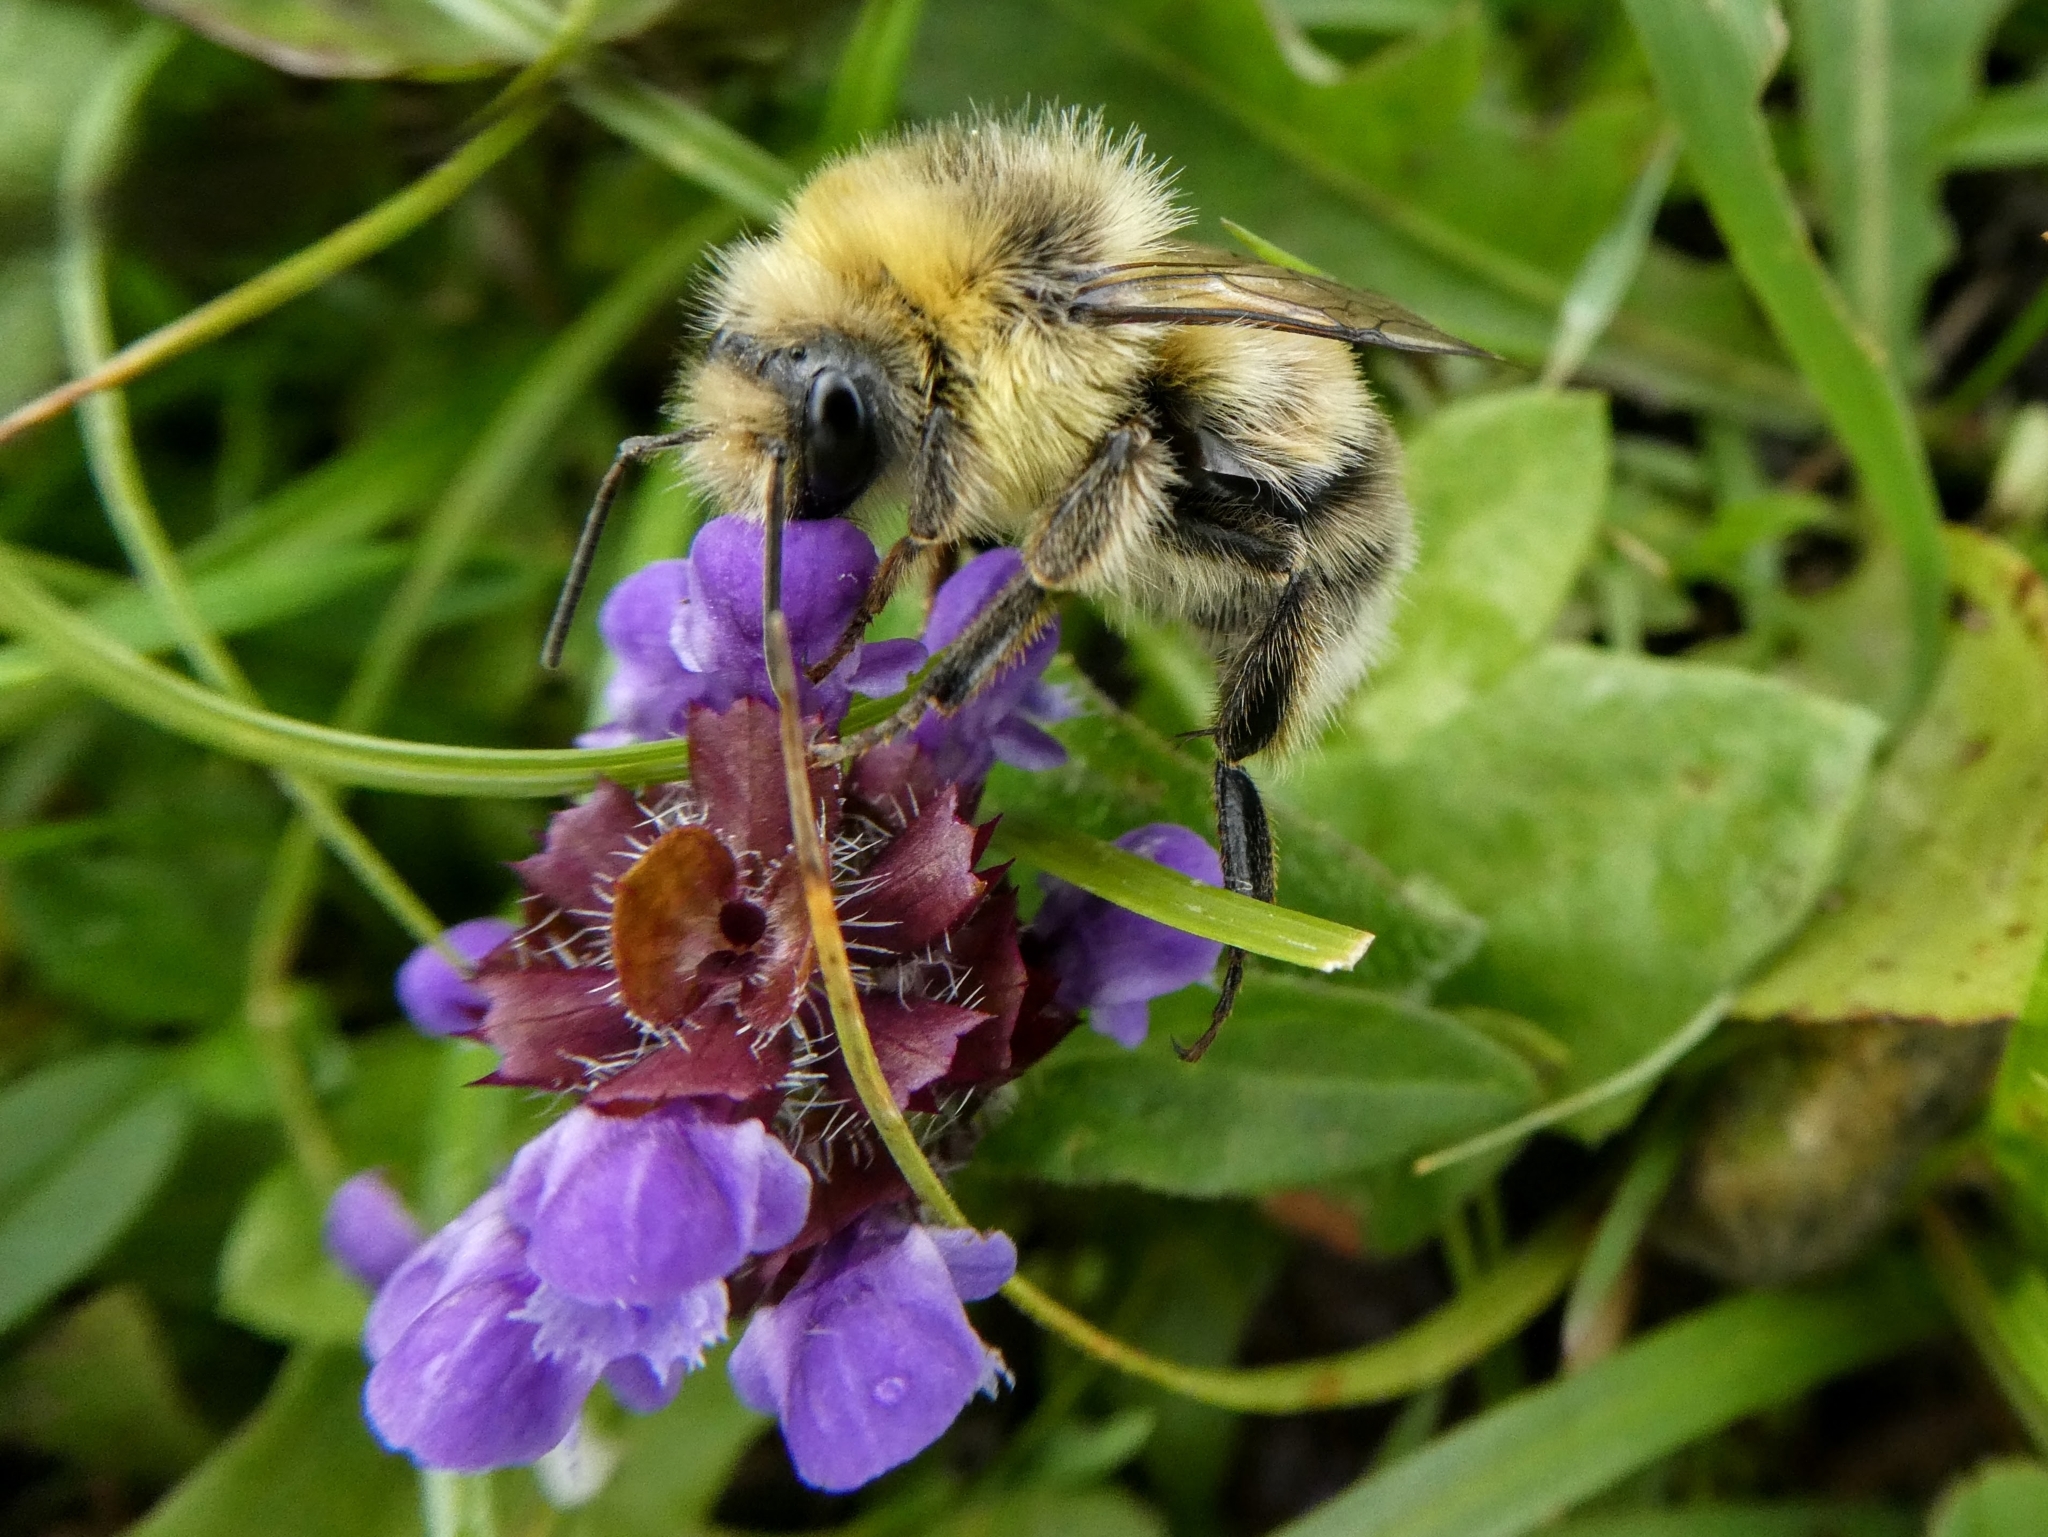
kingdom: Animalia
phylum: Arthropoda
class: Insecta
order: Hymenoptera
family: Apidae
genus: Bombus
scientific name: Bombus lucorum
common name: White-tailed bumblebee
